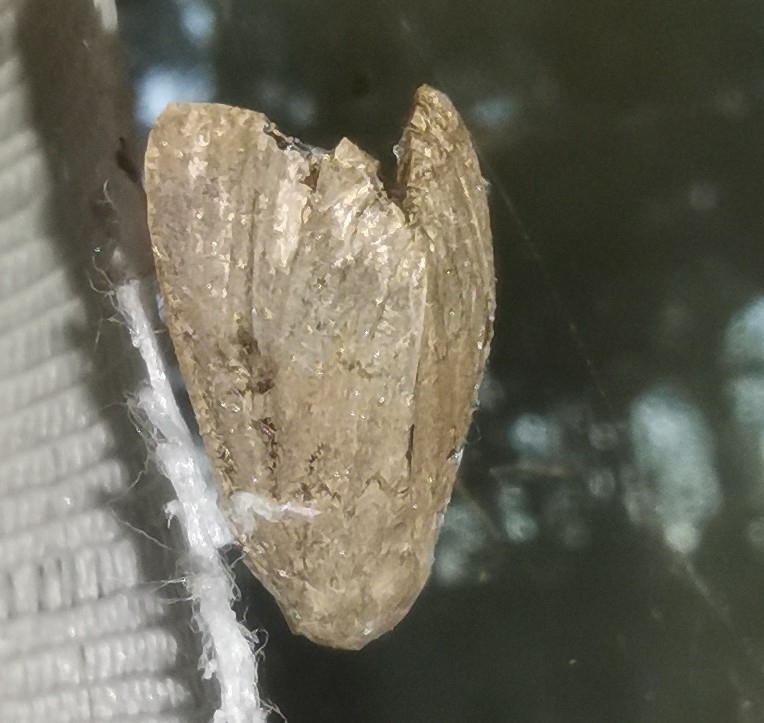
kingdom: Animalia
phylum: Arthropoda
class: Insecta
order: Lepidoptera
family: Noctuidae
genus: Graphiphora
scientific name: Graphiphora augur
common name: Double dart
